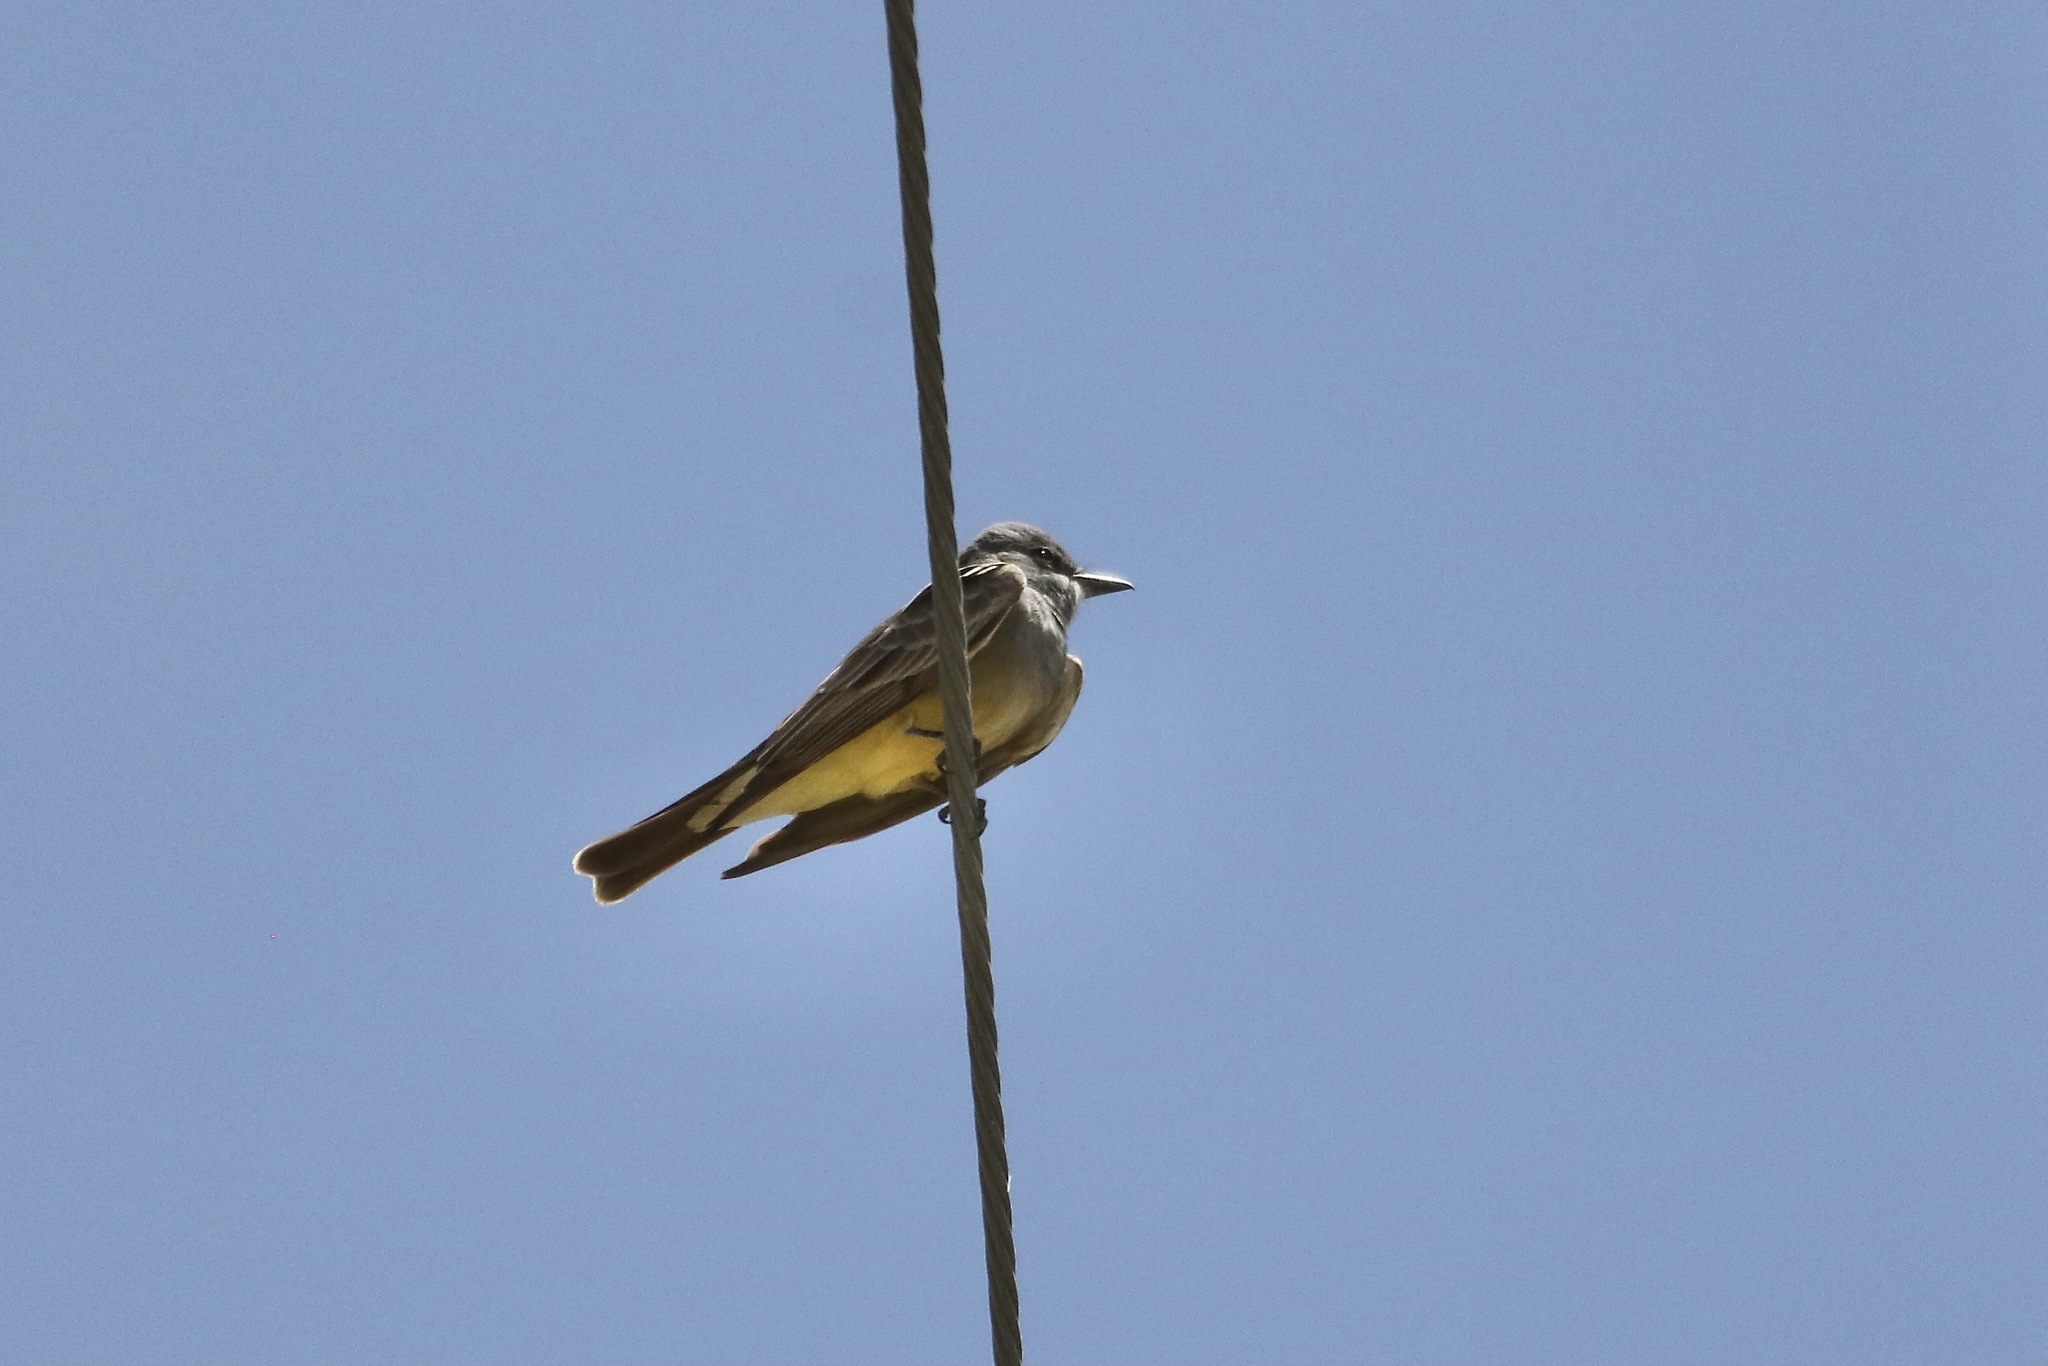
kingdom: Animalia
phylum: Chordata
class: Aves
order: Passeriformes
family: Tyrannidae
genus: Tyrannus
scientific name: Tyrannus vociferans
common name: Cassin's kingbird
